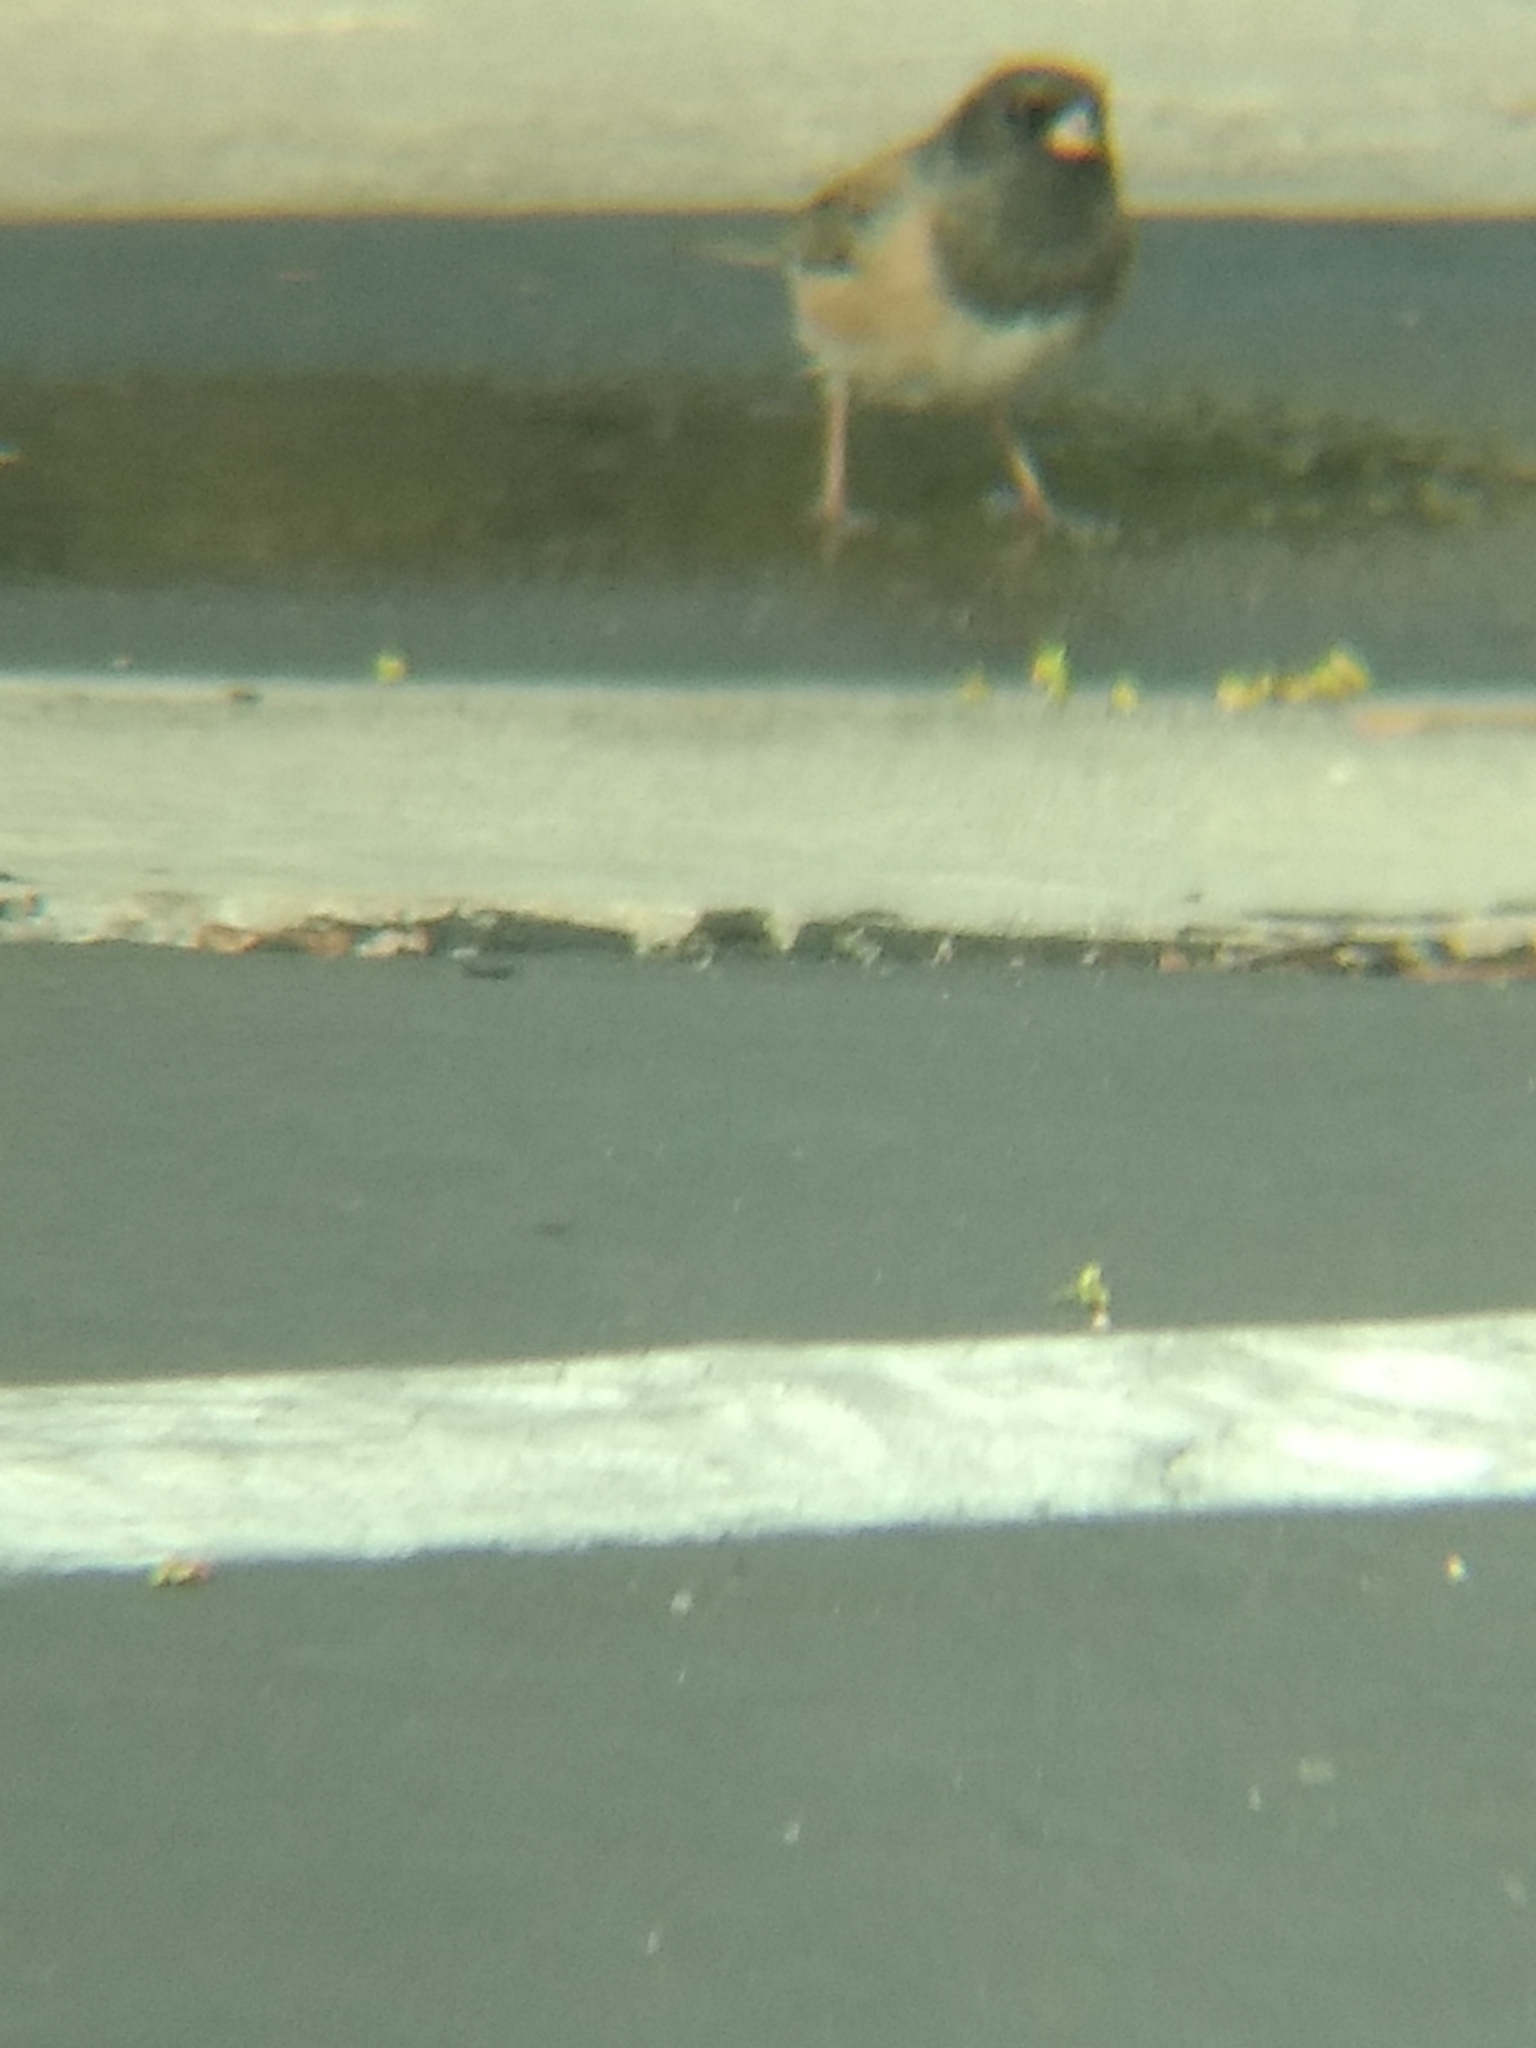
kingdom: Animalia
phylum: Chordata
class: Aves
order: Passeriformes
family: Passerellidae
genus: Junco
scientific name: Junco hyemalis
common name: Dark-eyed junco
